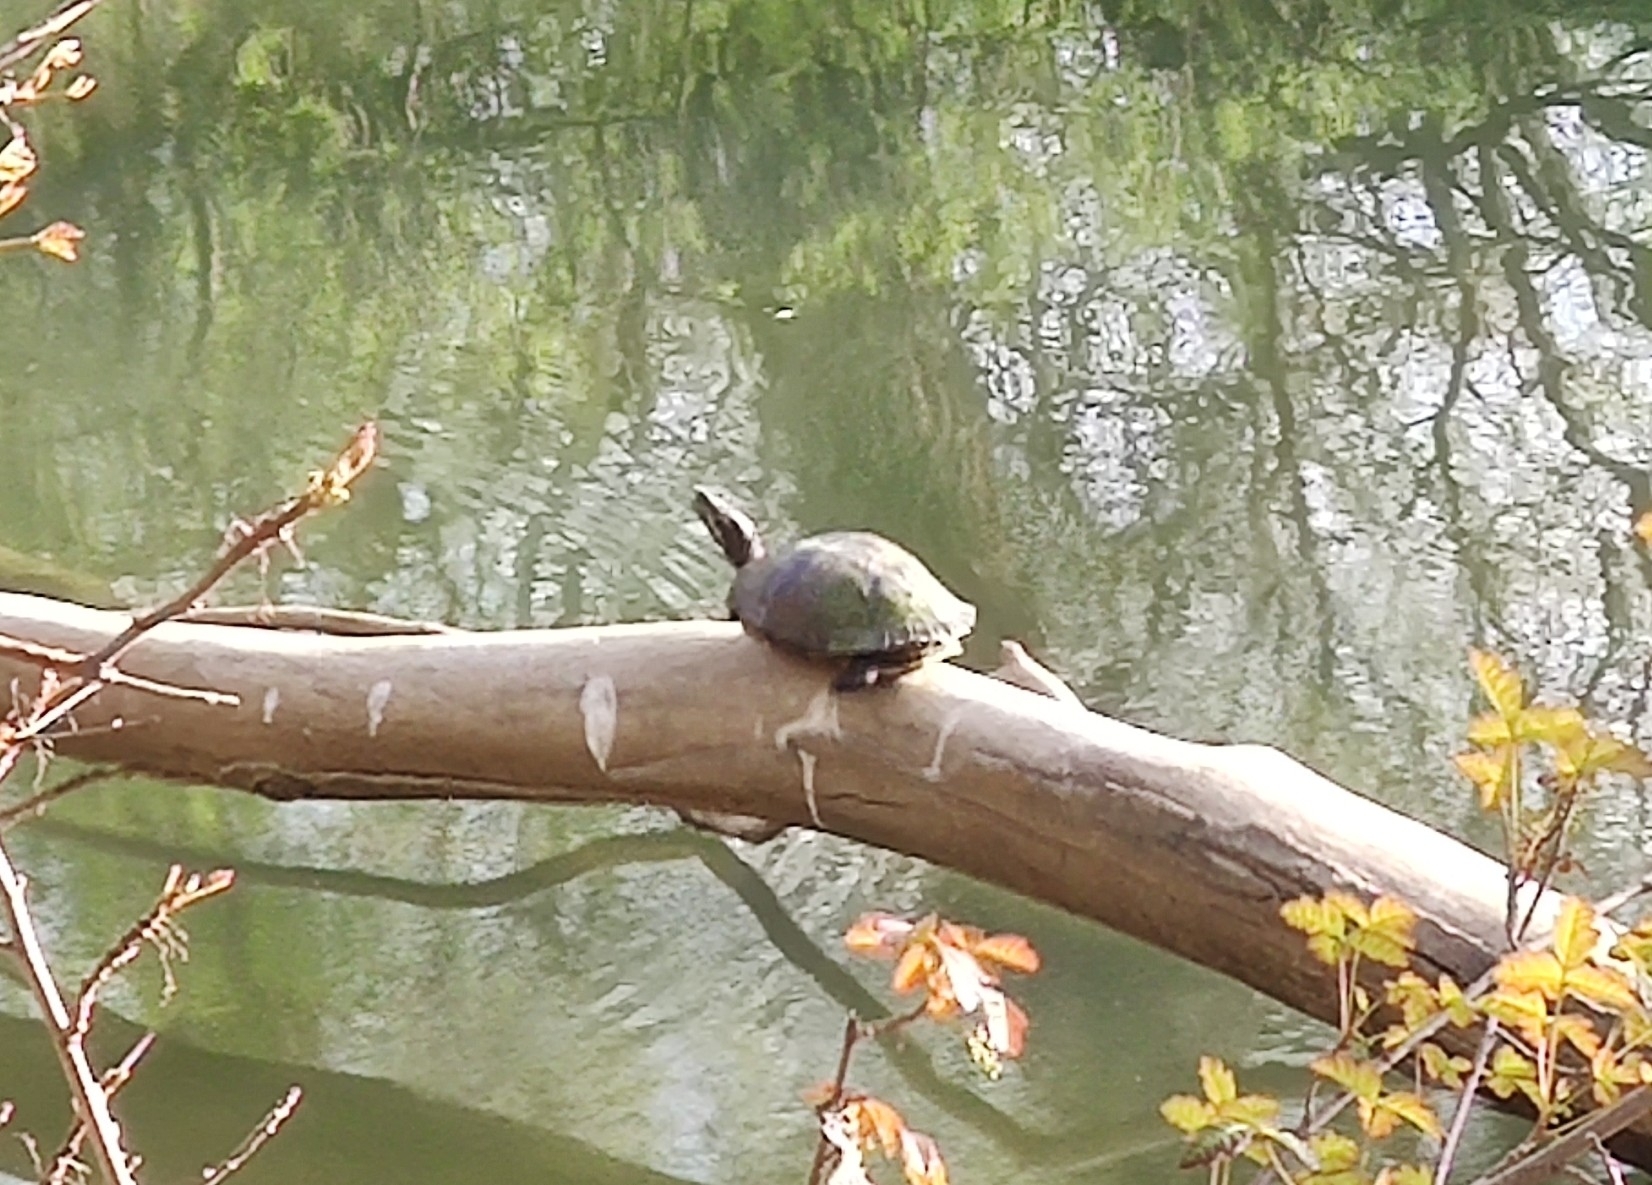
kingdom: Animalia
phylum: Chordata
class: Testudines
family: Emydidae
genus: Trachemys
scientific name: Trachemys scripta
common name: Slider
